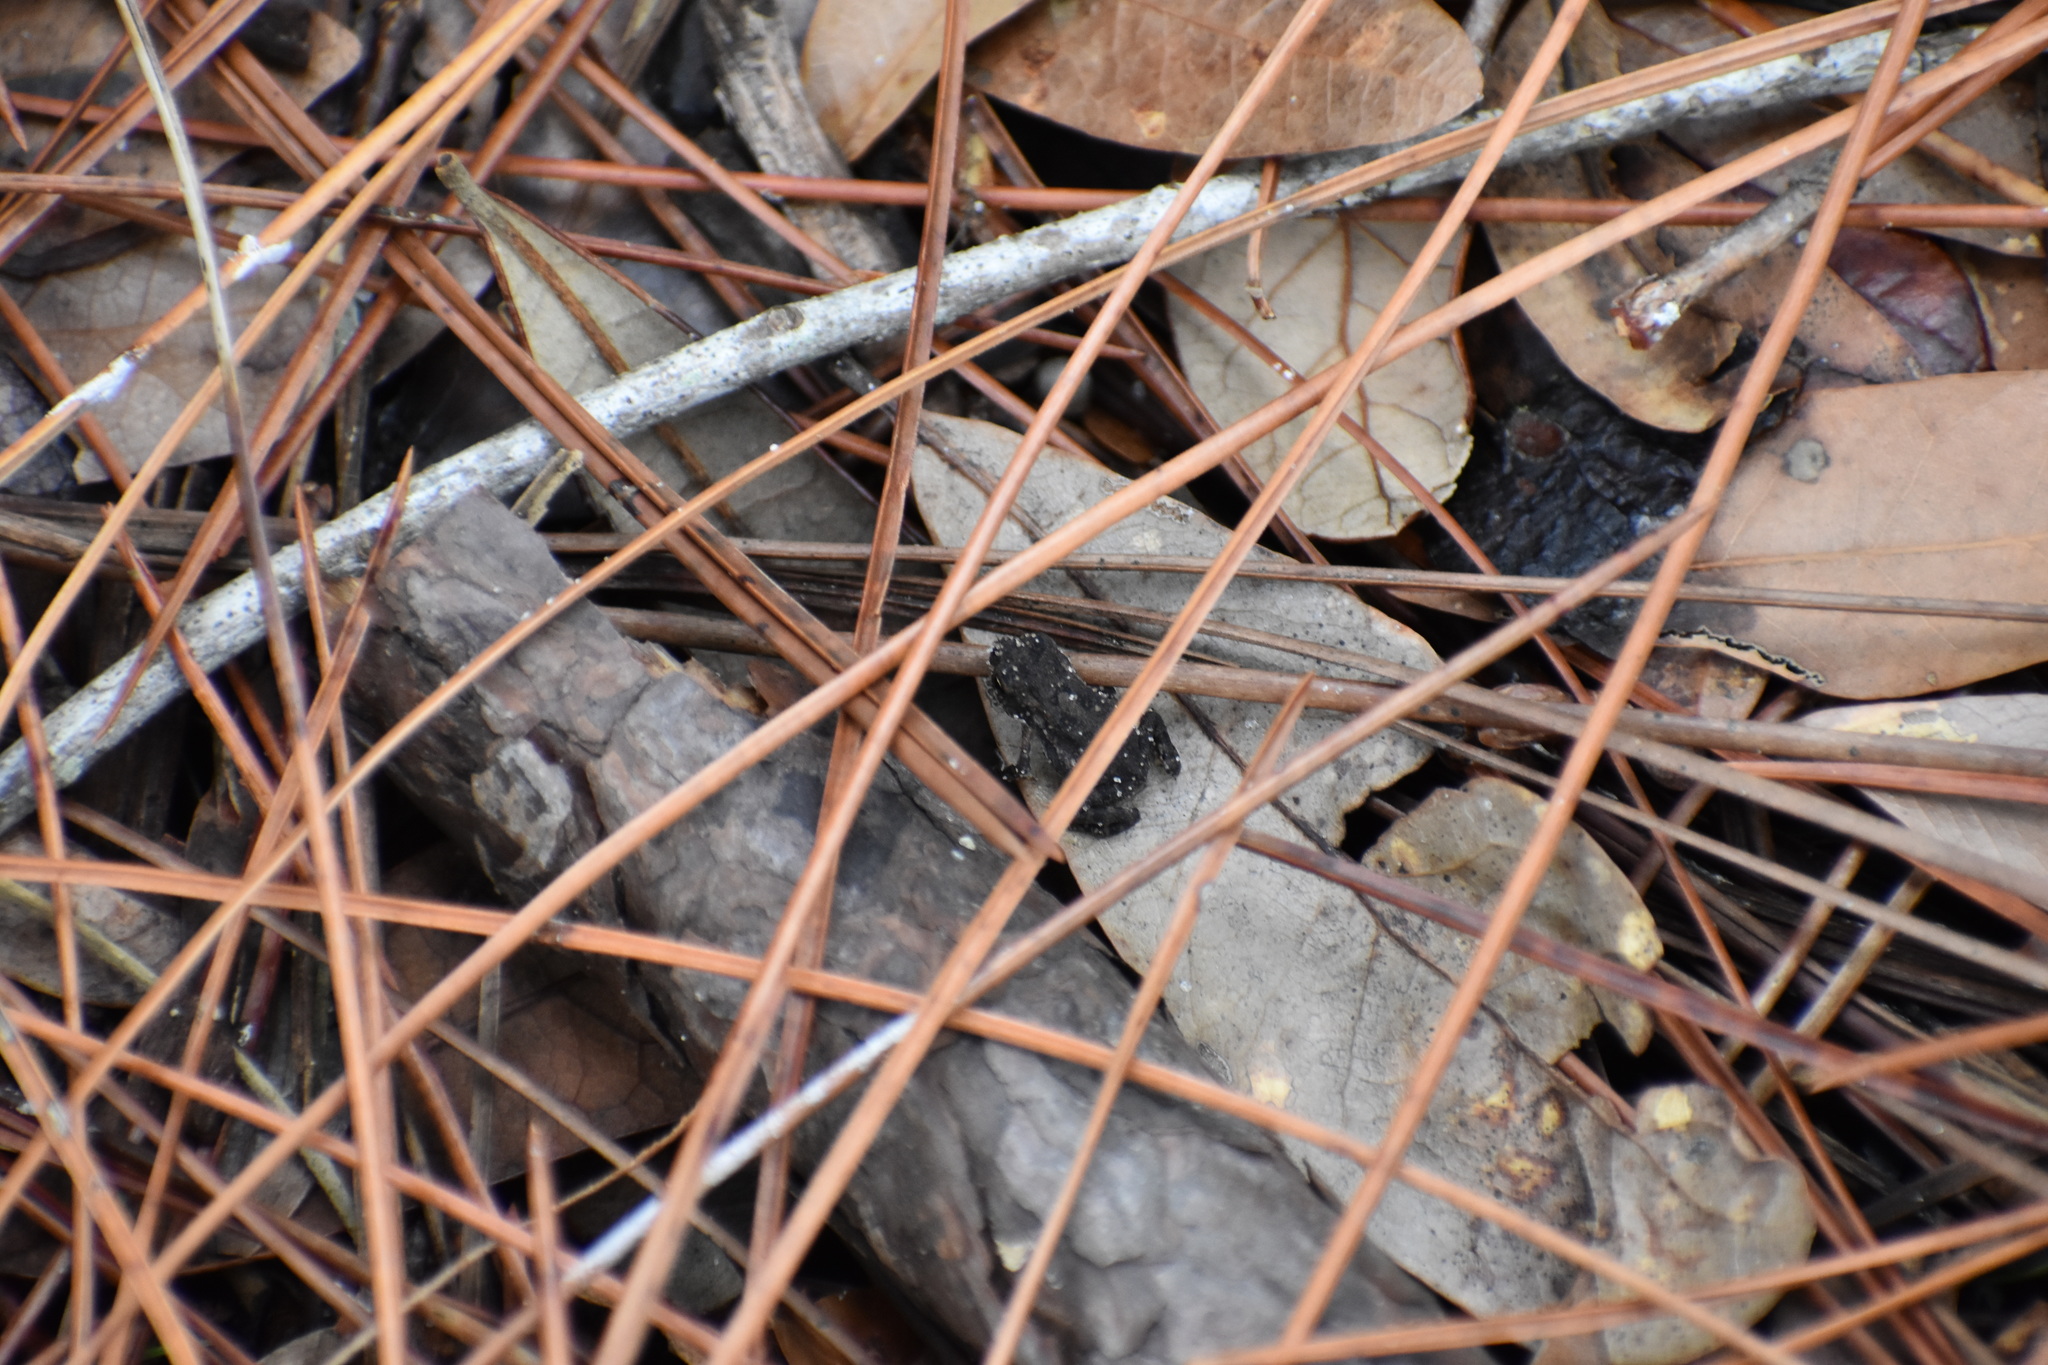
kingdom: Animalia
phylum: Chordata
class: Amphibia
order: Anura
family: Bufonidae
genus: Anaxyrus
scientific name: Anaxyrus terrestris
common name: Southern toad
